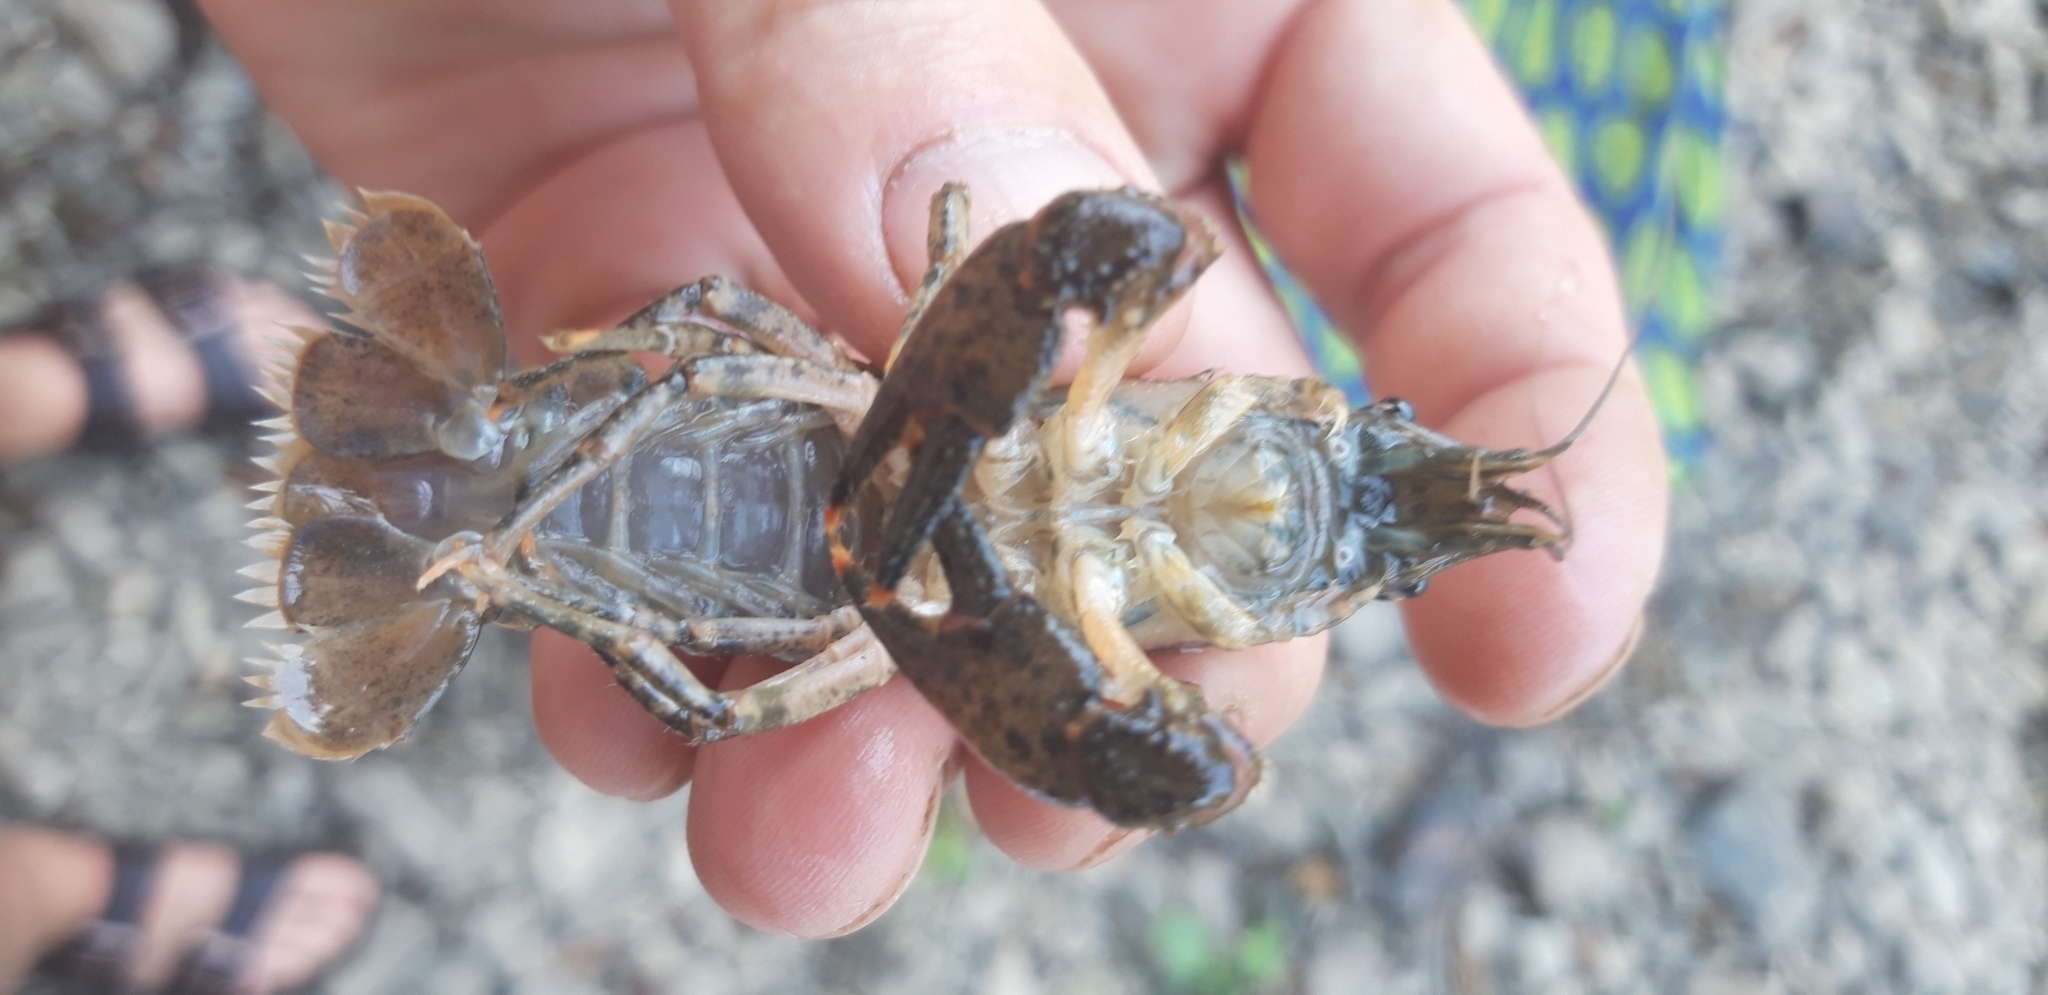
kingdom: Animalia
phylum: Arthropoda
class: Malacostraca
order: Decapoda
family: Cambaridae
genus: Faxonius
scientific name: Faxonius limosus
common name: American crayfish
